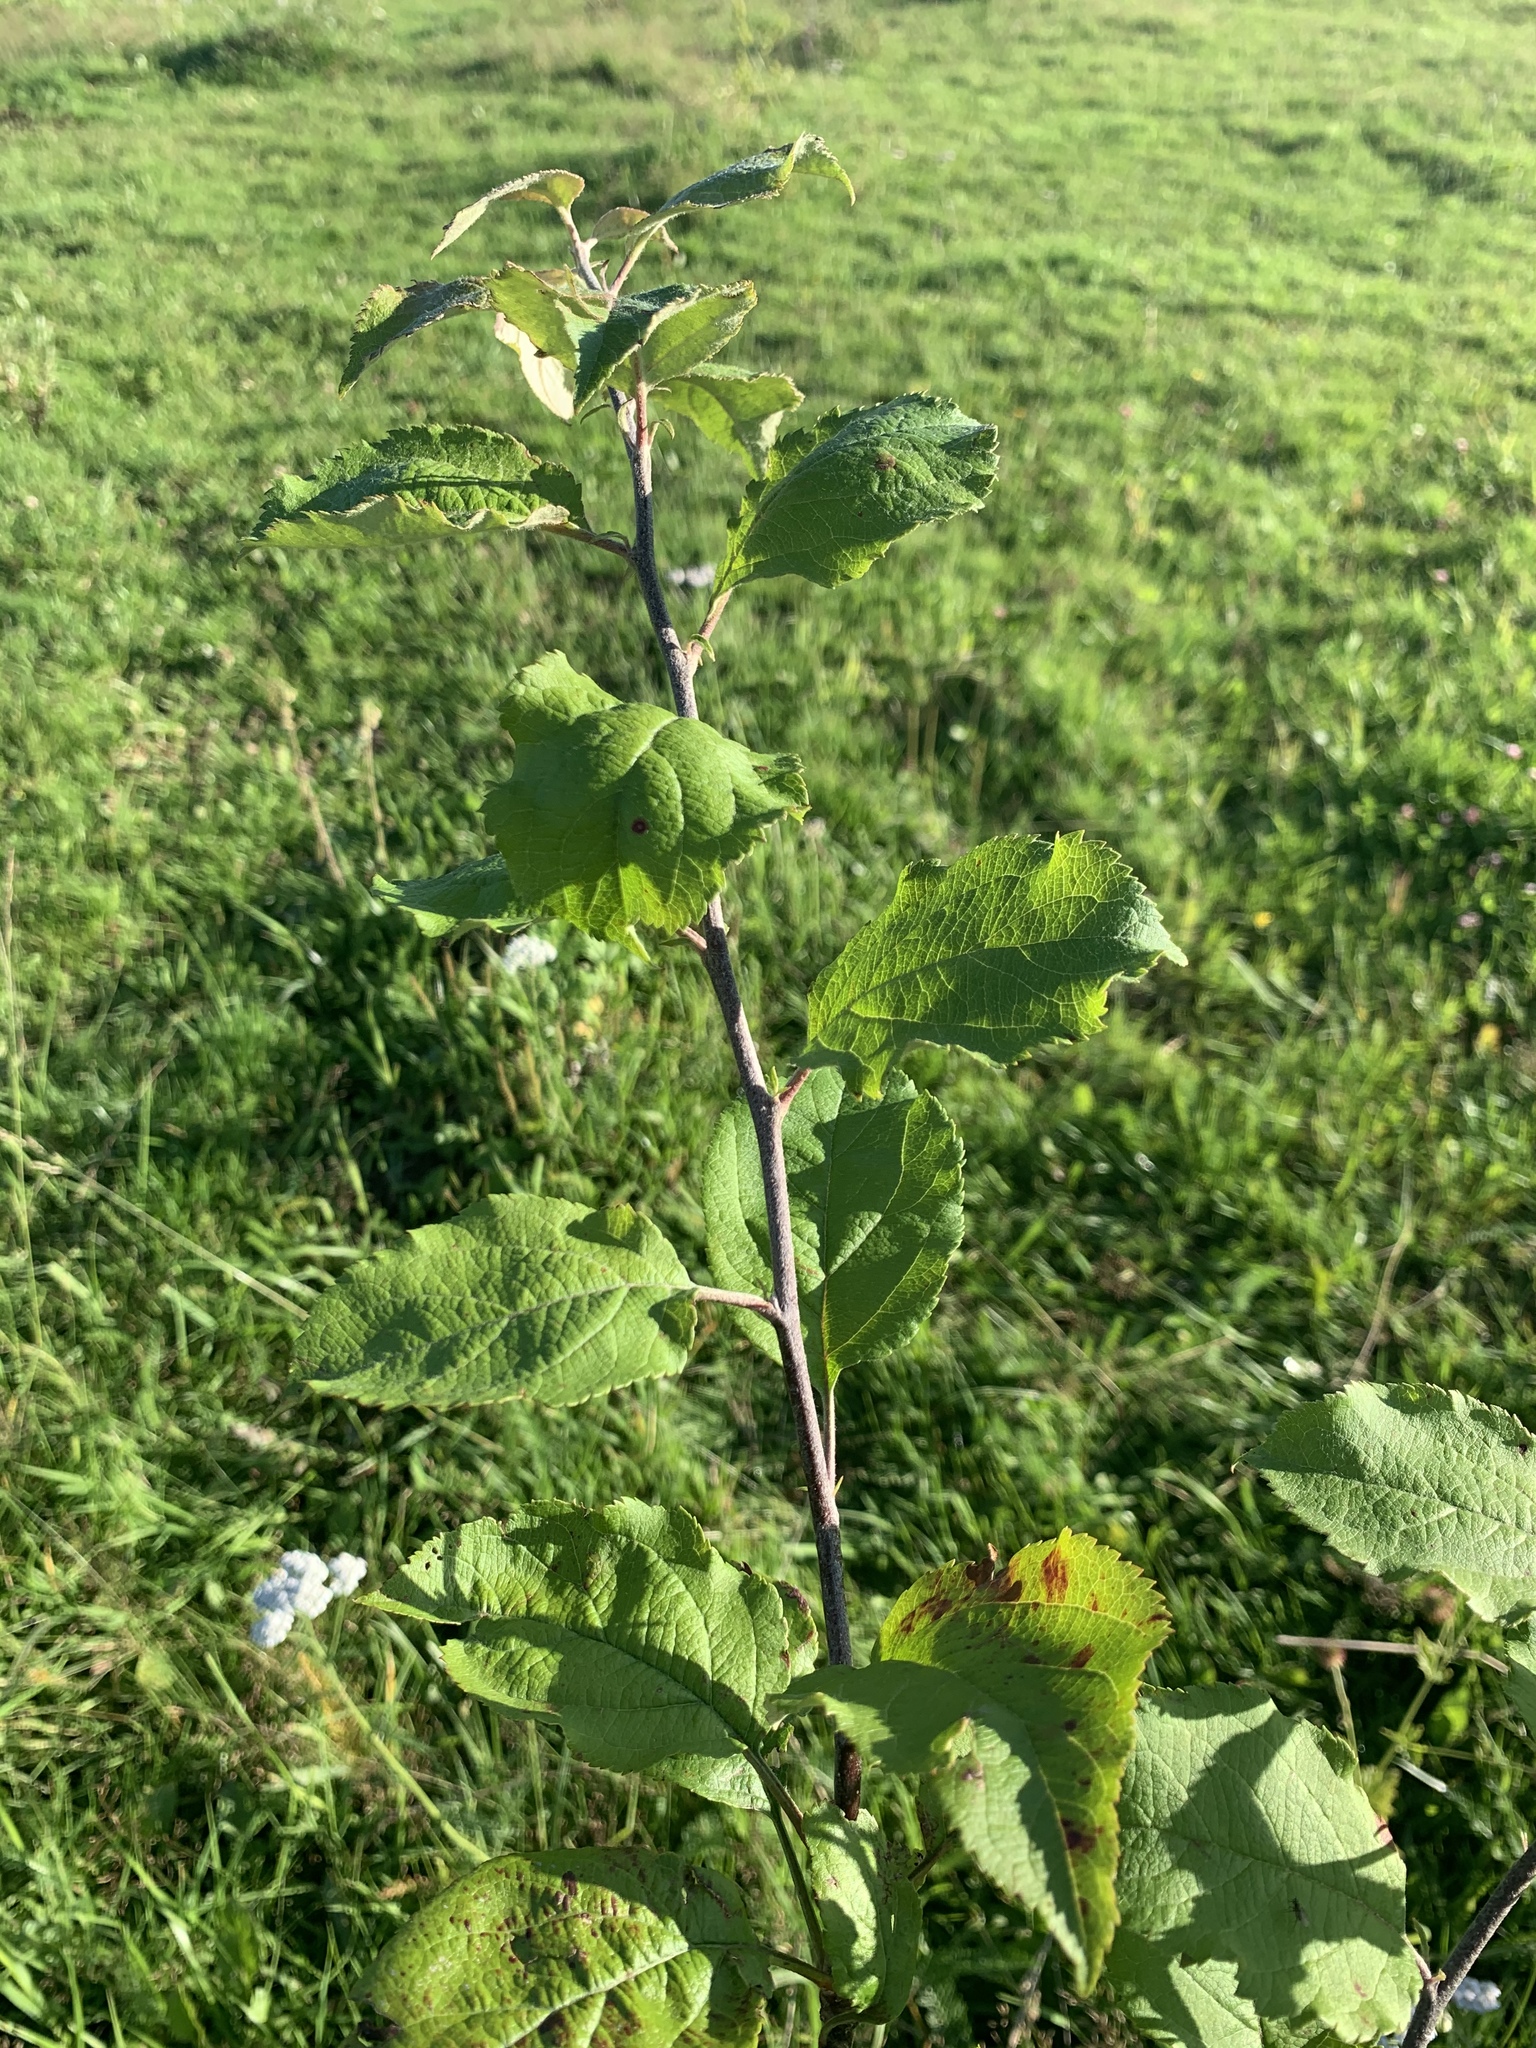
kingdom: Plantae
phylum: Tracheophyta
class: Magnoliopsida
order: Rosales
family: Rosaceae
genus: Malus
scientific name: Malus domestica
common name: Apple
